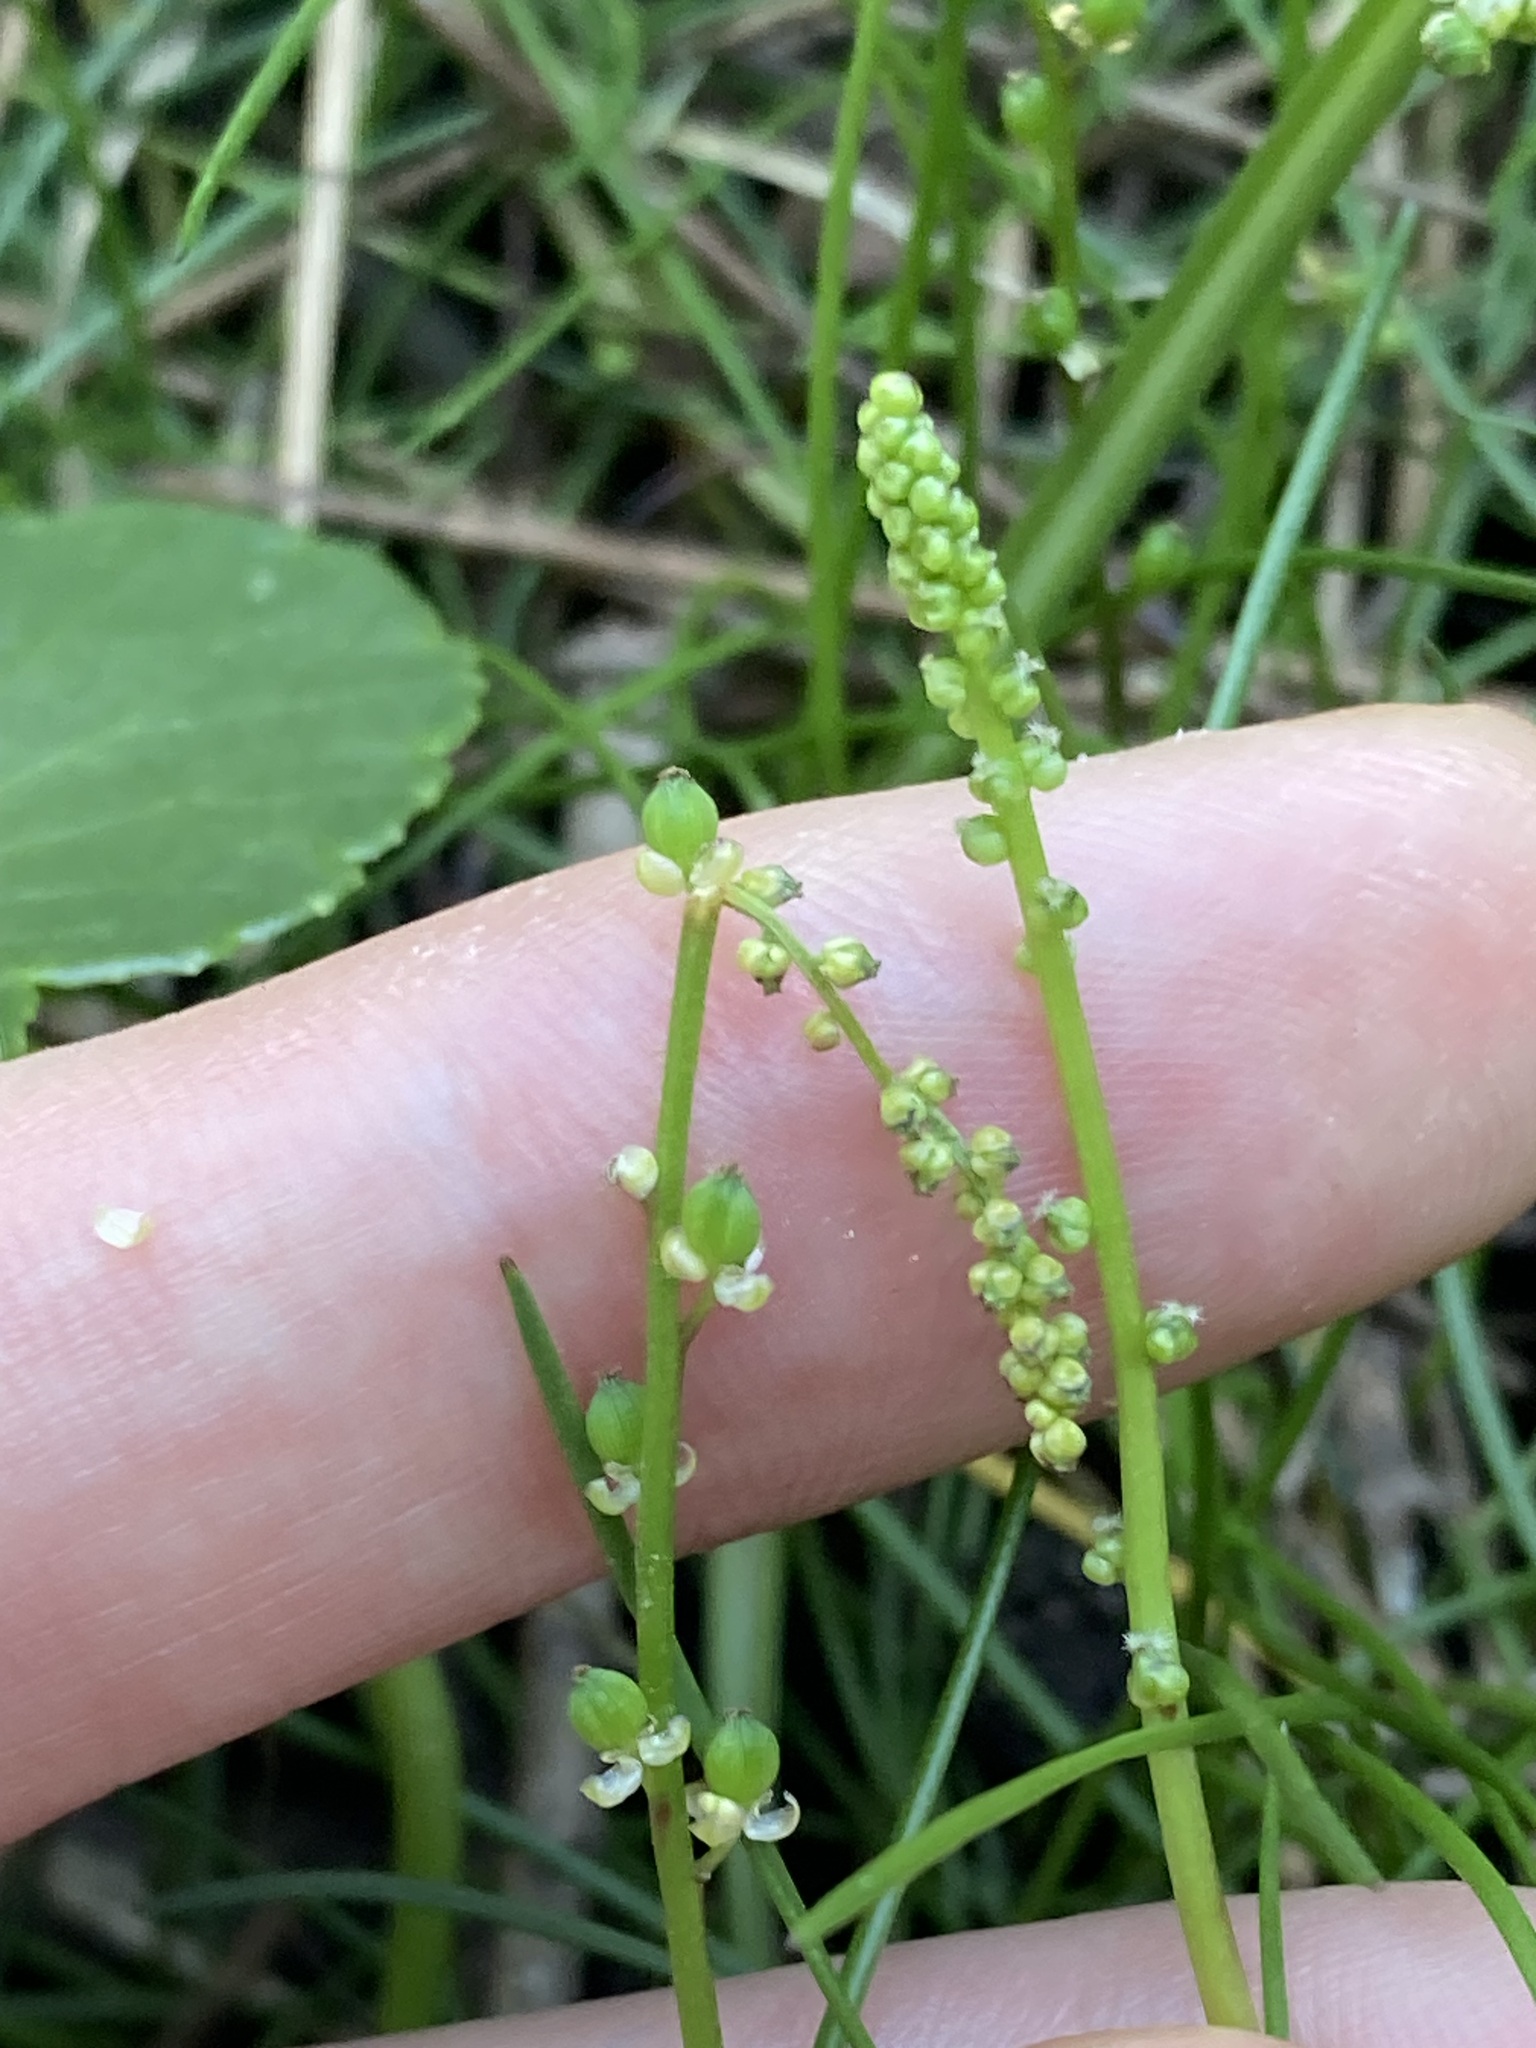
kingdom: Plantae
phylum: Tracheophyta
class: Liliopsida
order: Alismatales
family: Juncaginaceae
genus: Triglochin
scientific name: Triglochin striata
